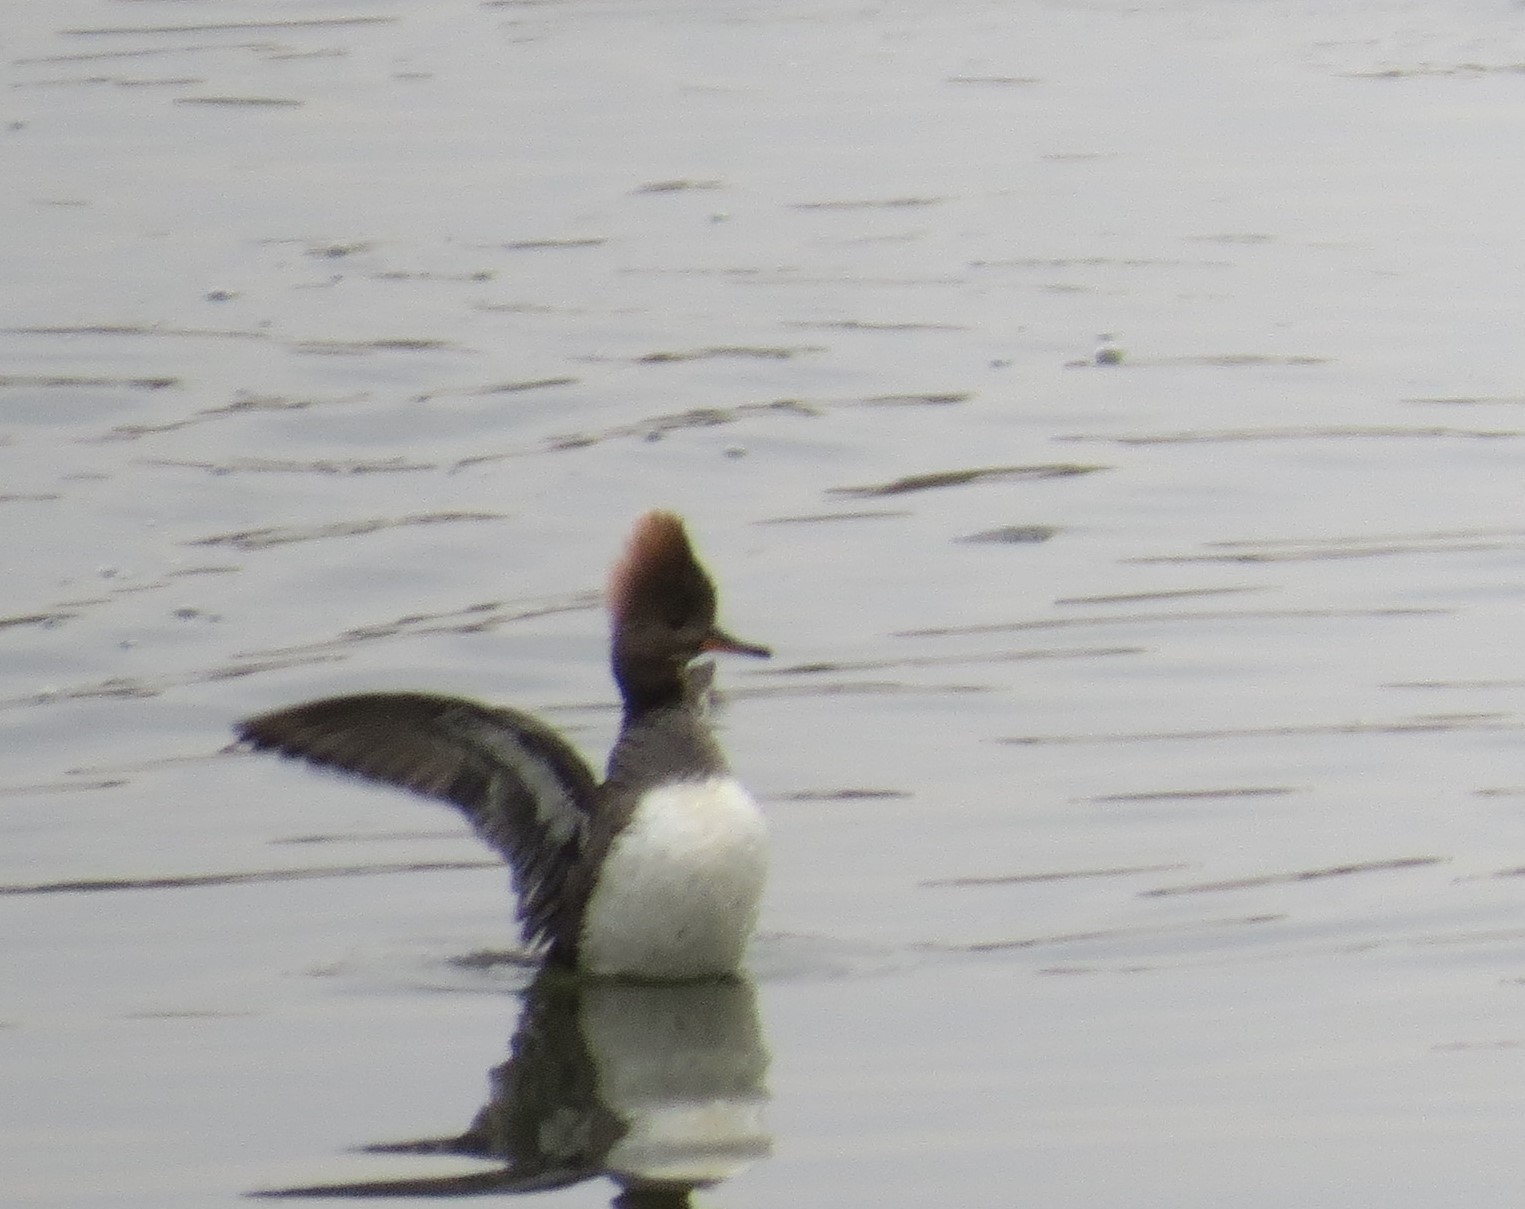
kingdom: Animalia
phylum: Chordata
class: Aves
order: Anseriformes
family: Anatidae
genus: Lophodytes
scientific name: Lophodytes cucullatus
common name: Hooded merganser
